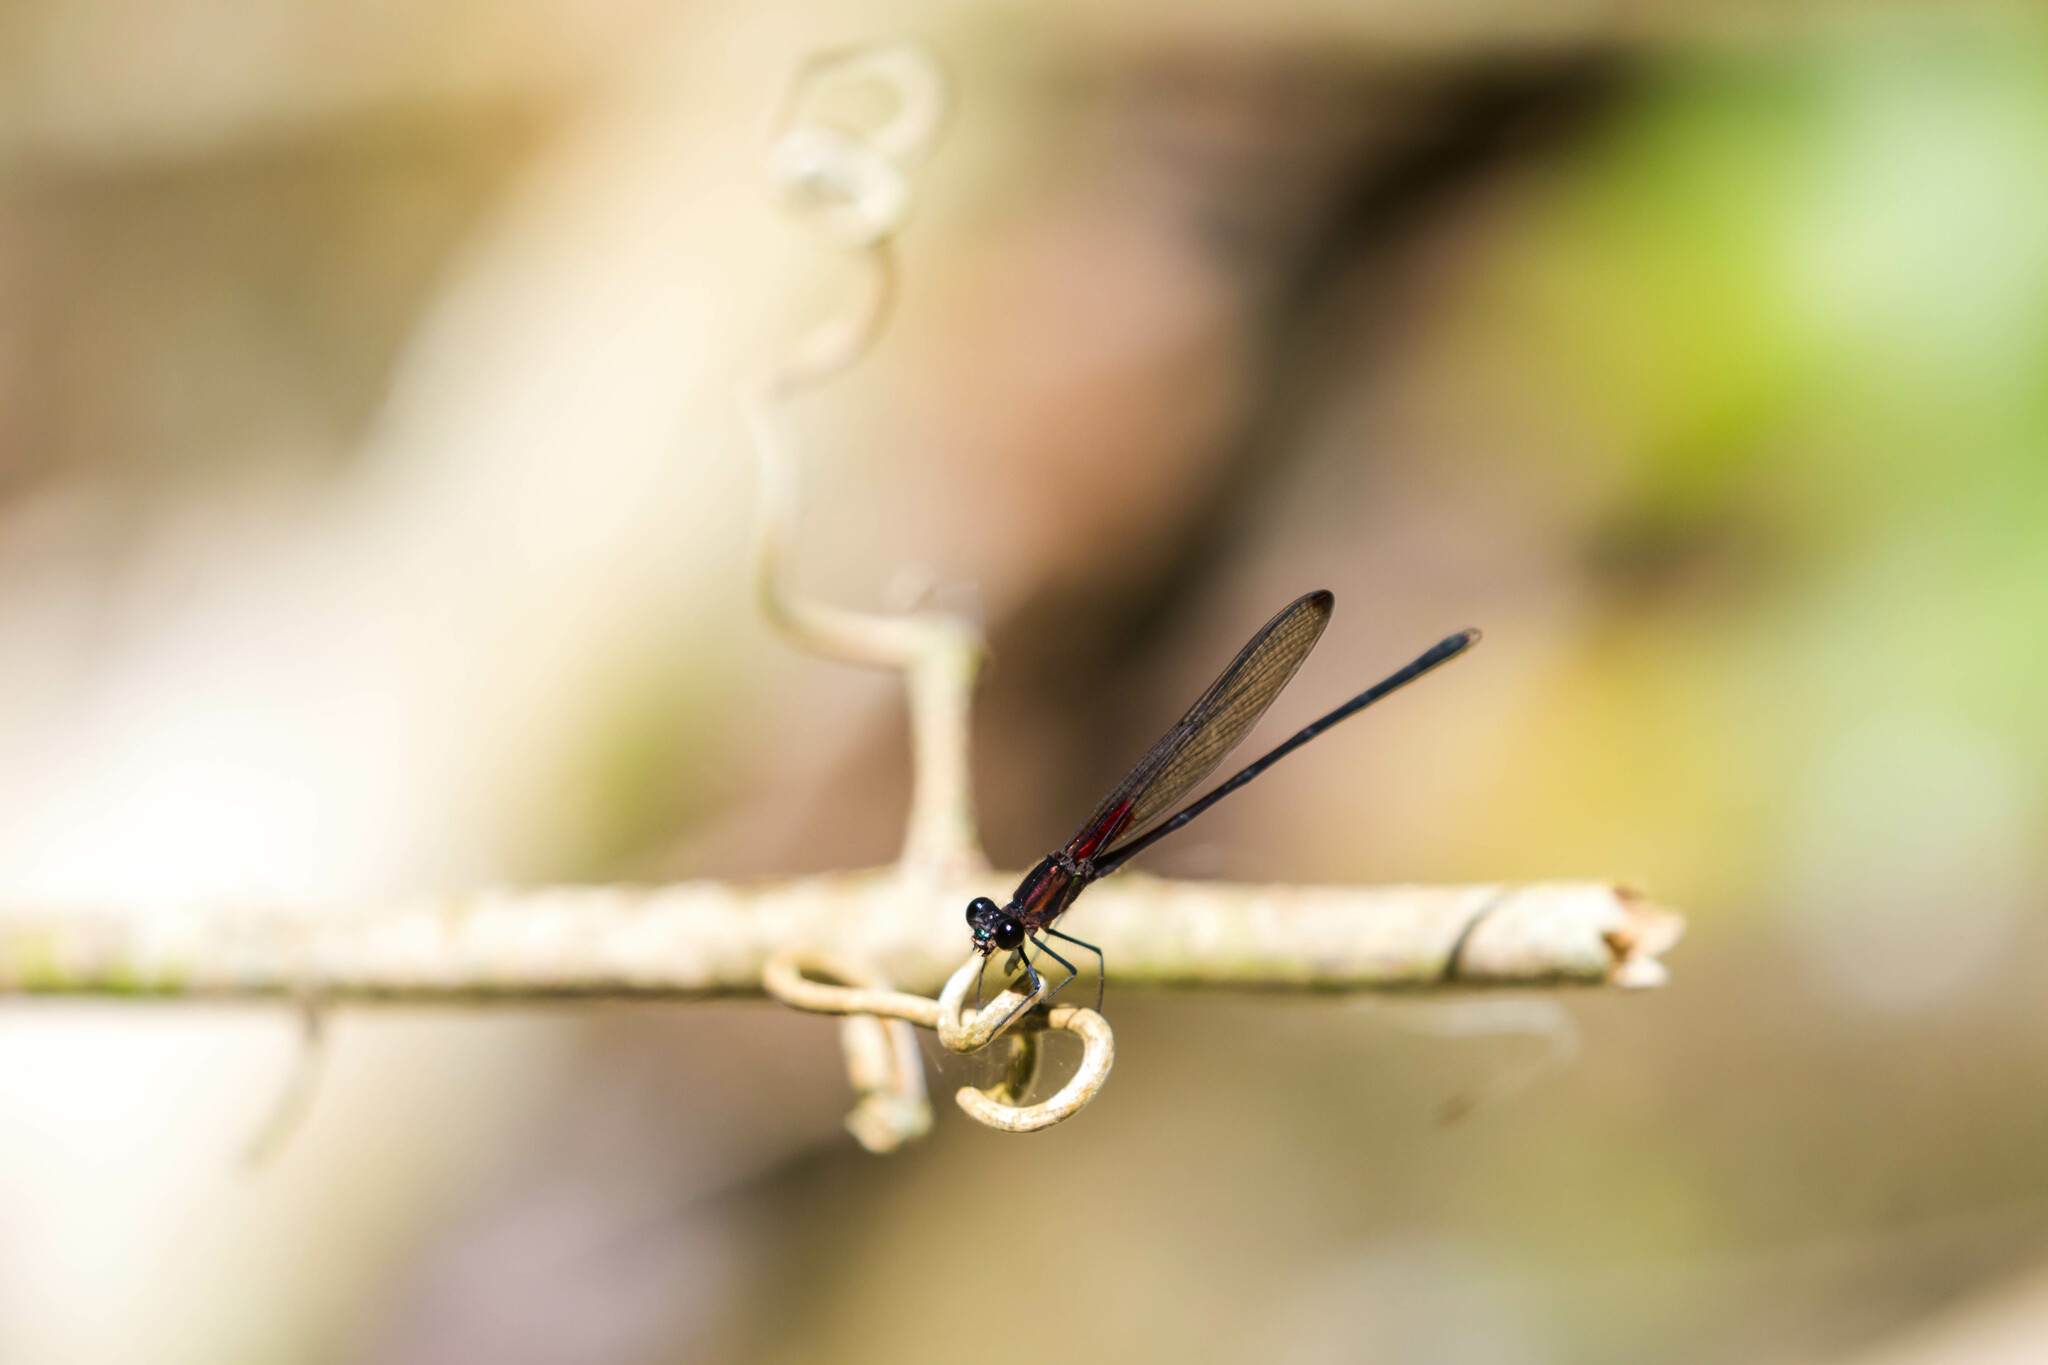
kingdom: Animalia
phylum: Arthropoda
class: Insecta
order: Odonata
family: Calopterygidae
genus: Hetaerina
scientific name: Hetaerina cruentata
